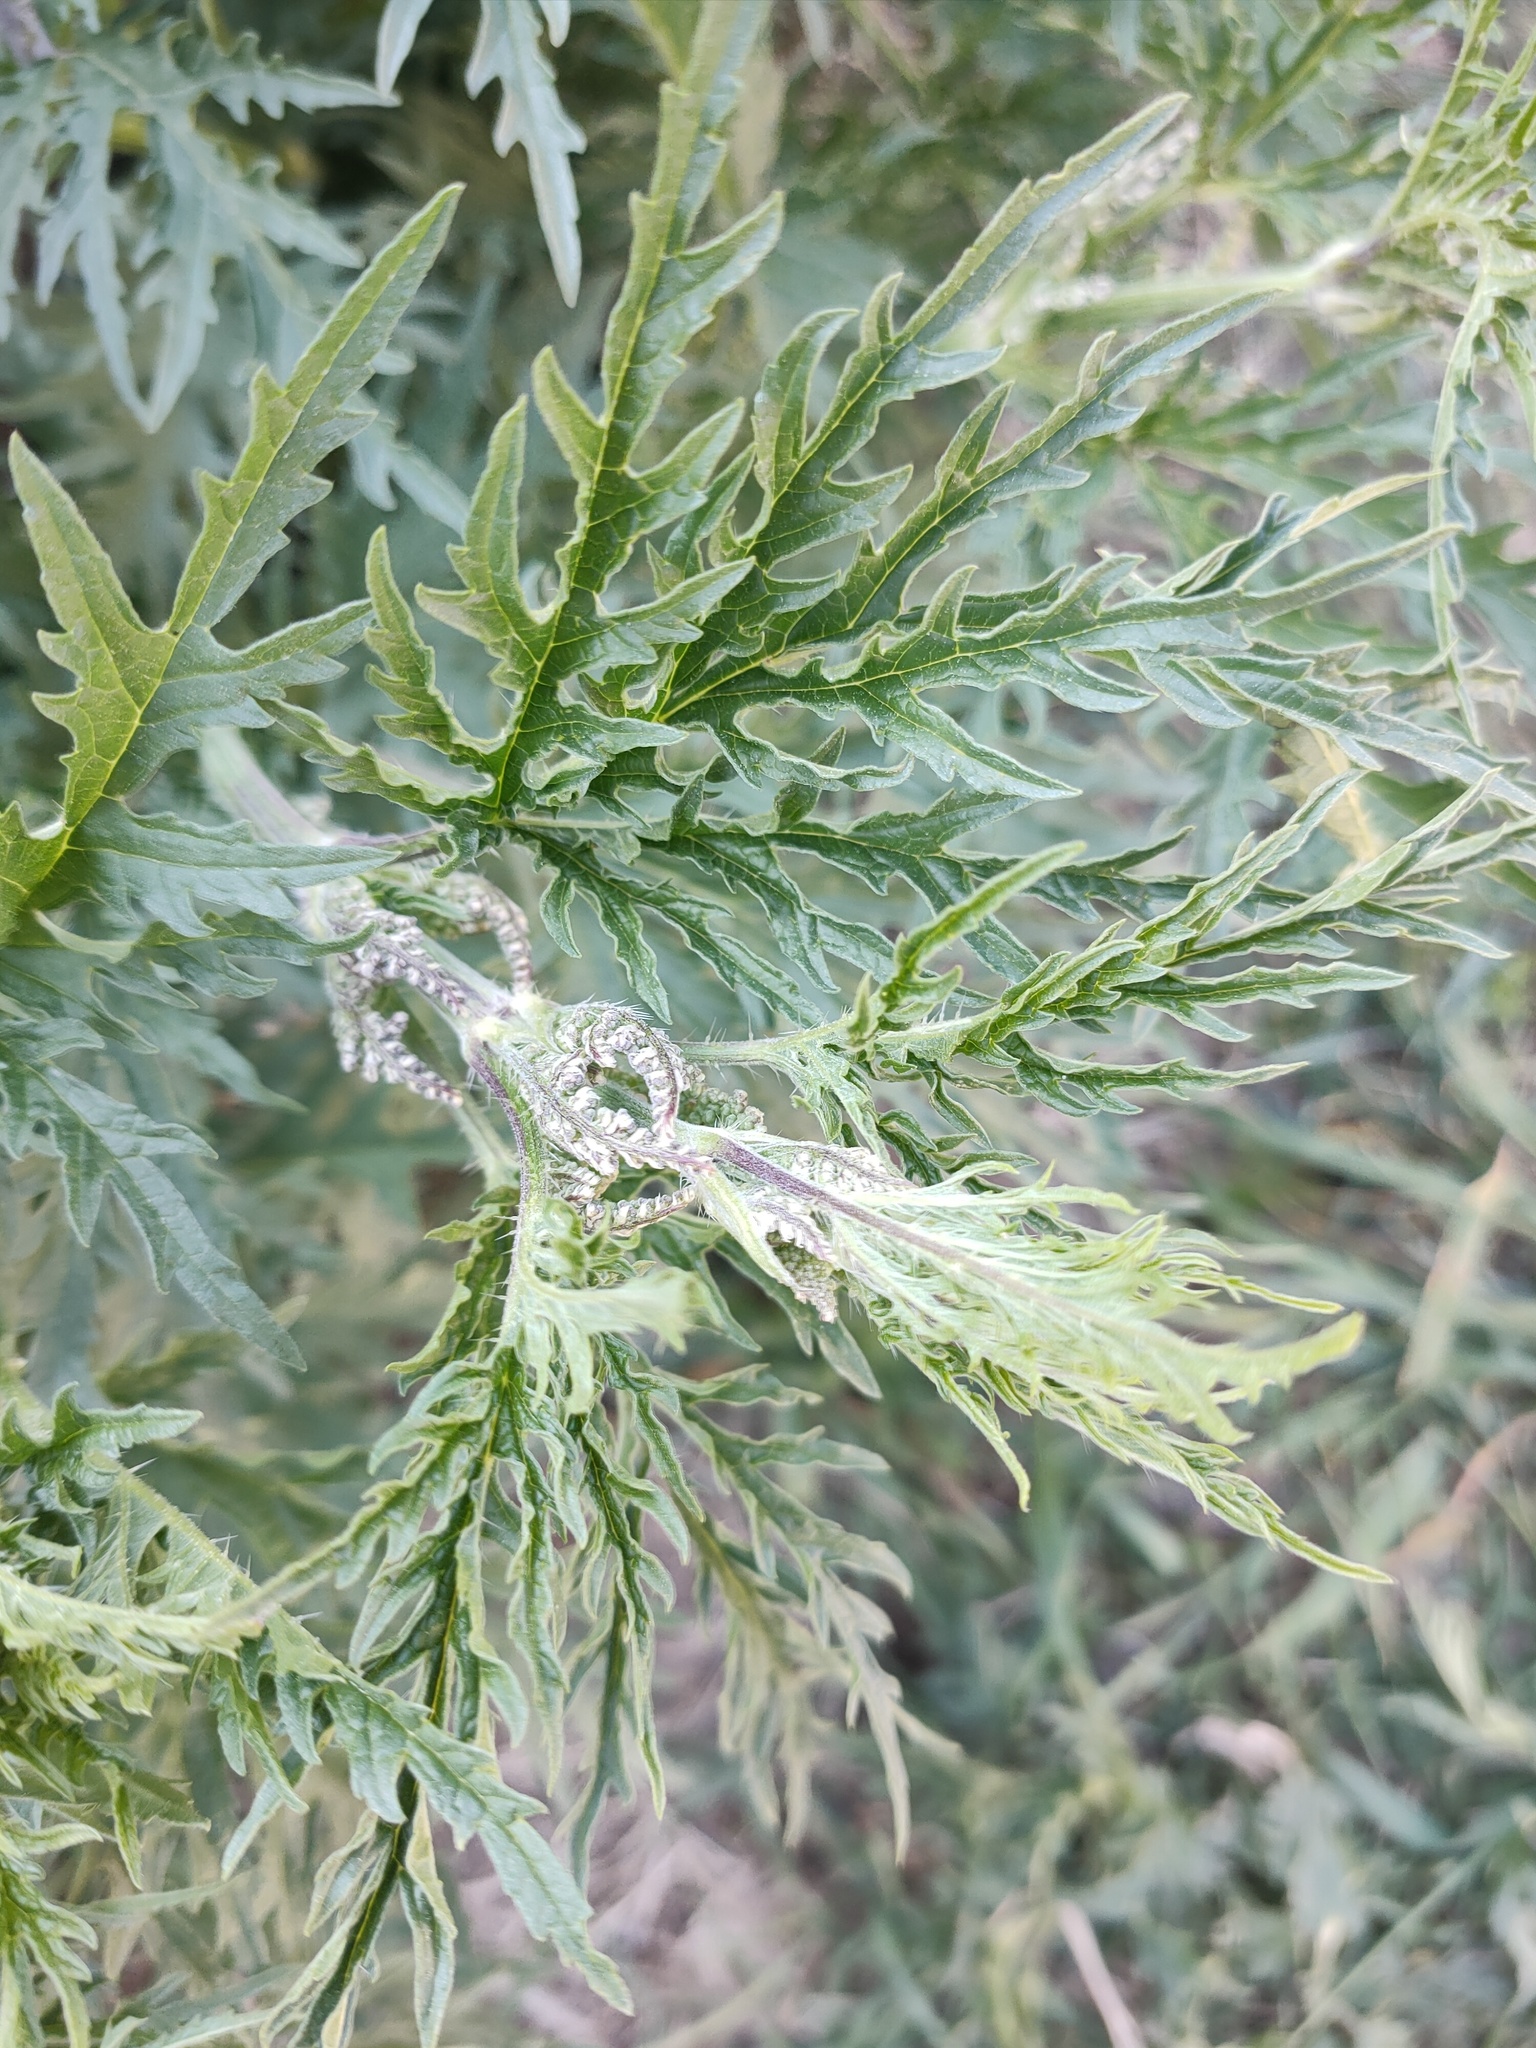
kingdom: Plantae
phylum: Tracheophyta
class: Magnoliopsida
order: Rosales
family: Urticaceae
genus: Urtica
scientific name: Urtica cannabina
